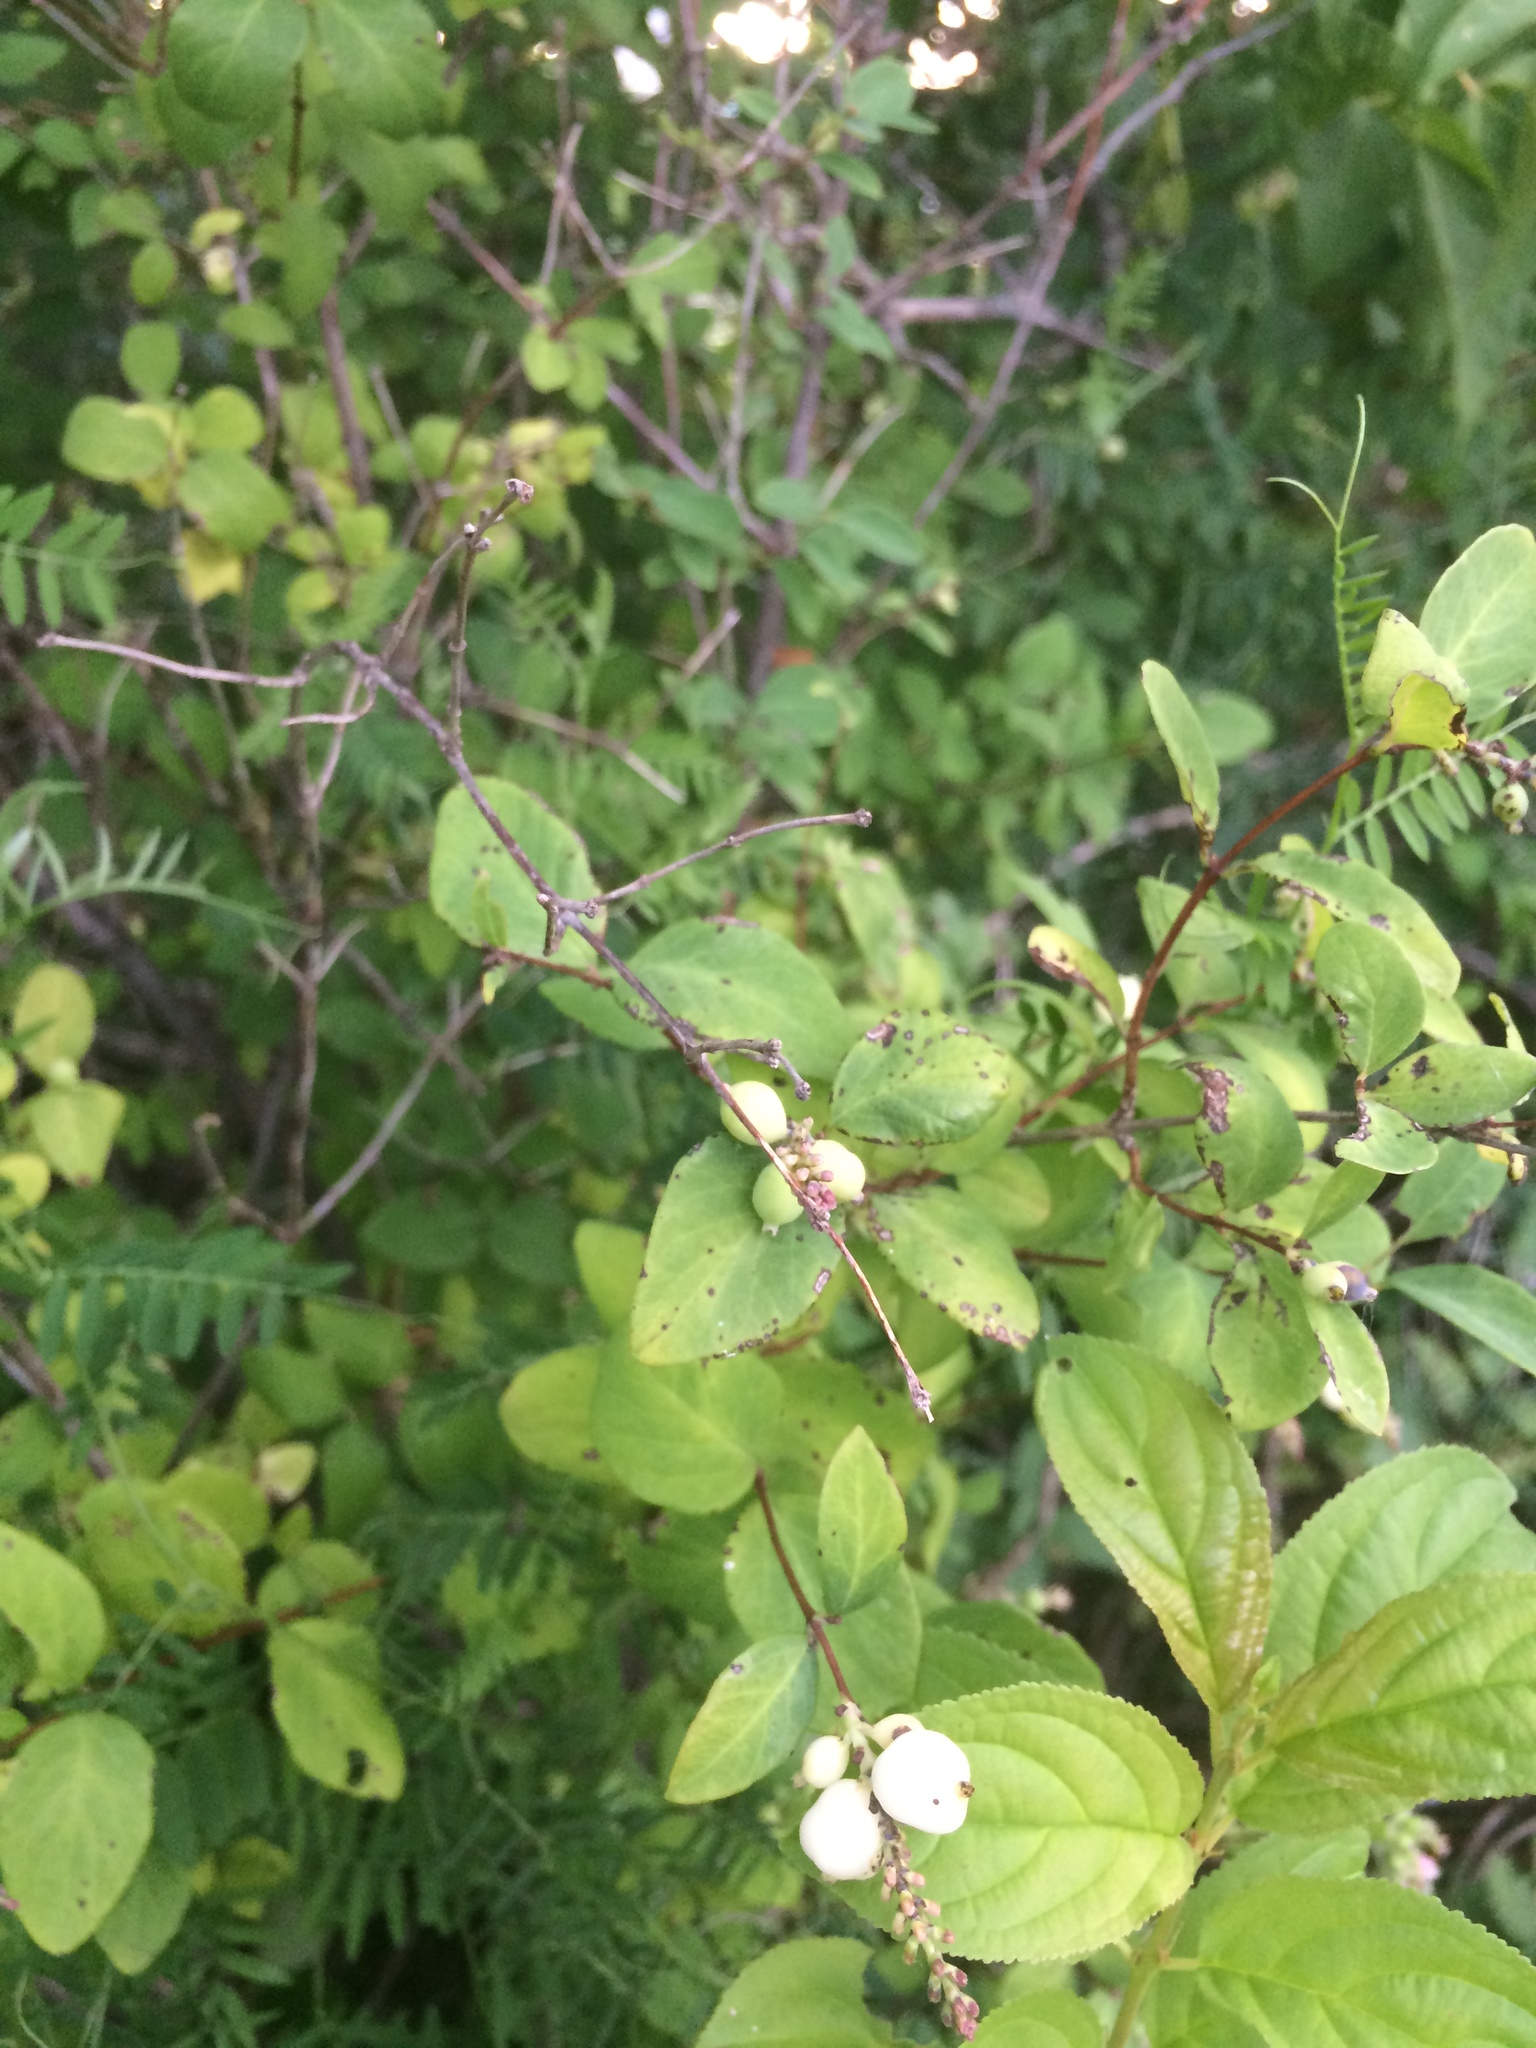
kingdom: Plantae
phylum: Tracheophyta
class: Magnoliopsida
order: Dipsacales
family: Caprifoliaceae
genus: Symphoricarpos
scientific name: Symphoricarpos albus
